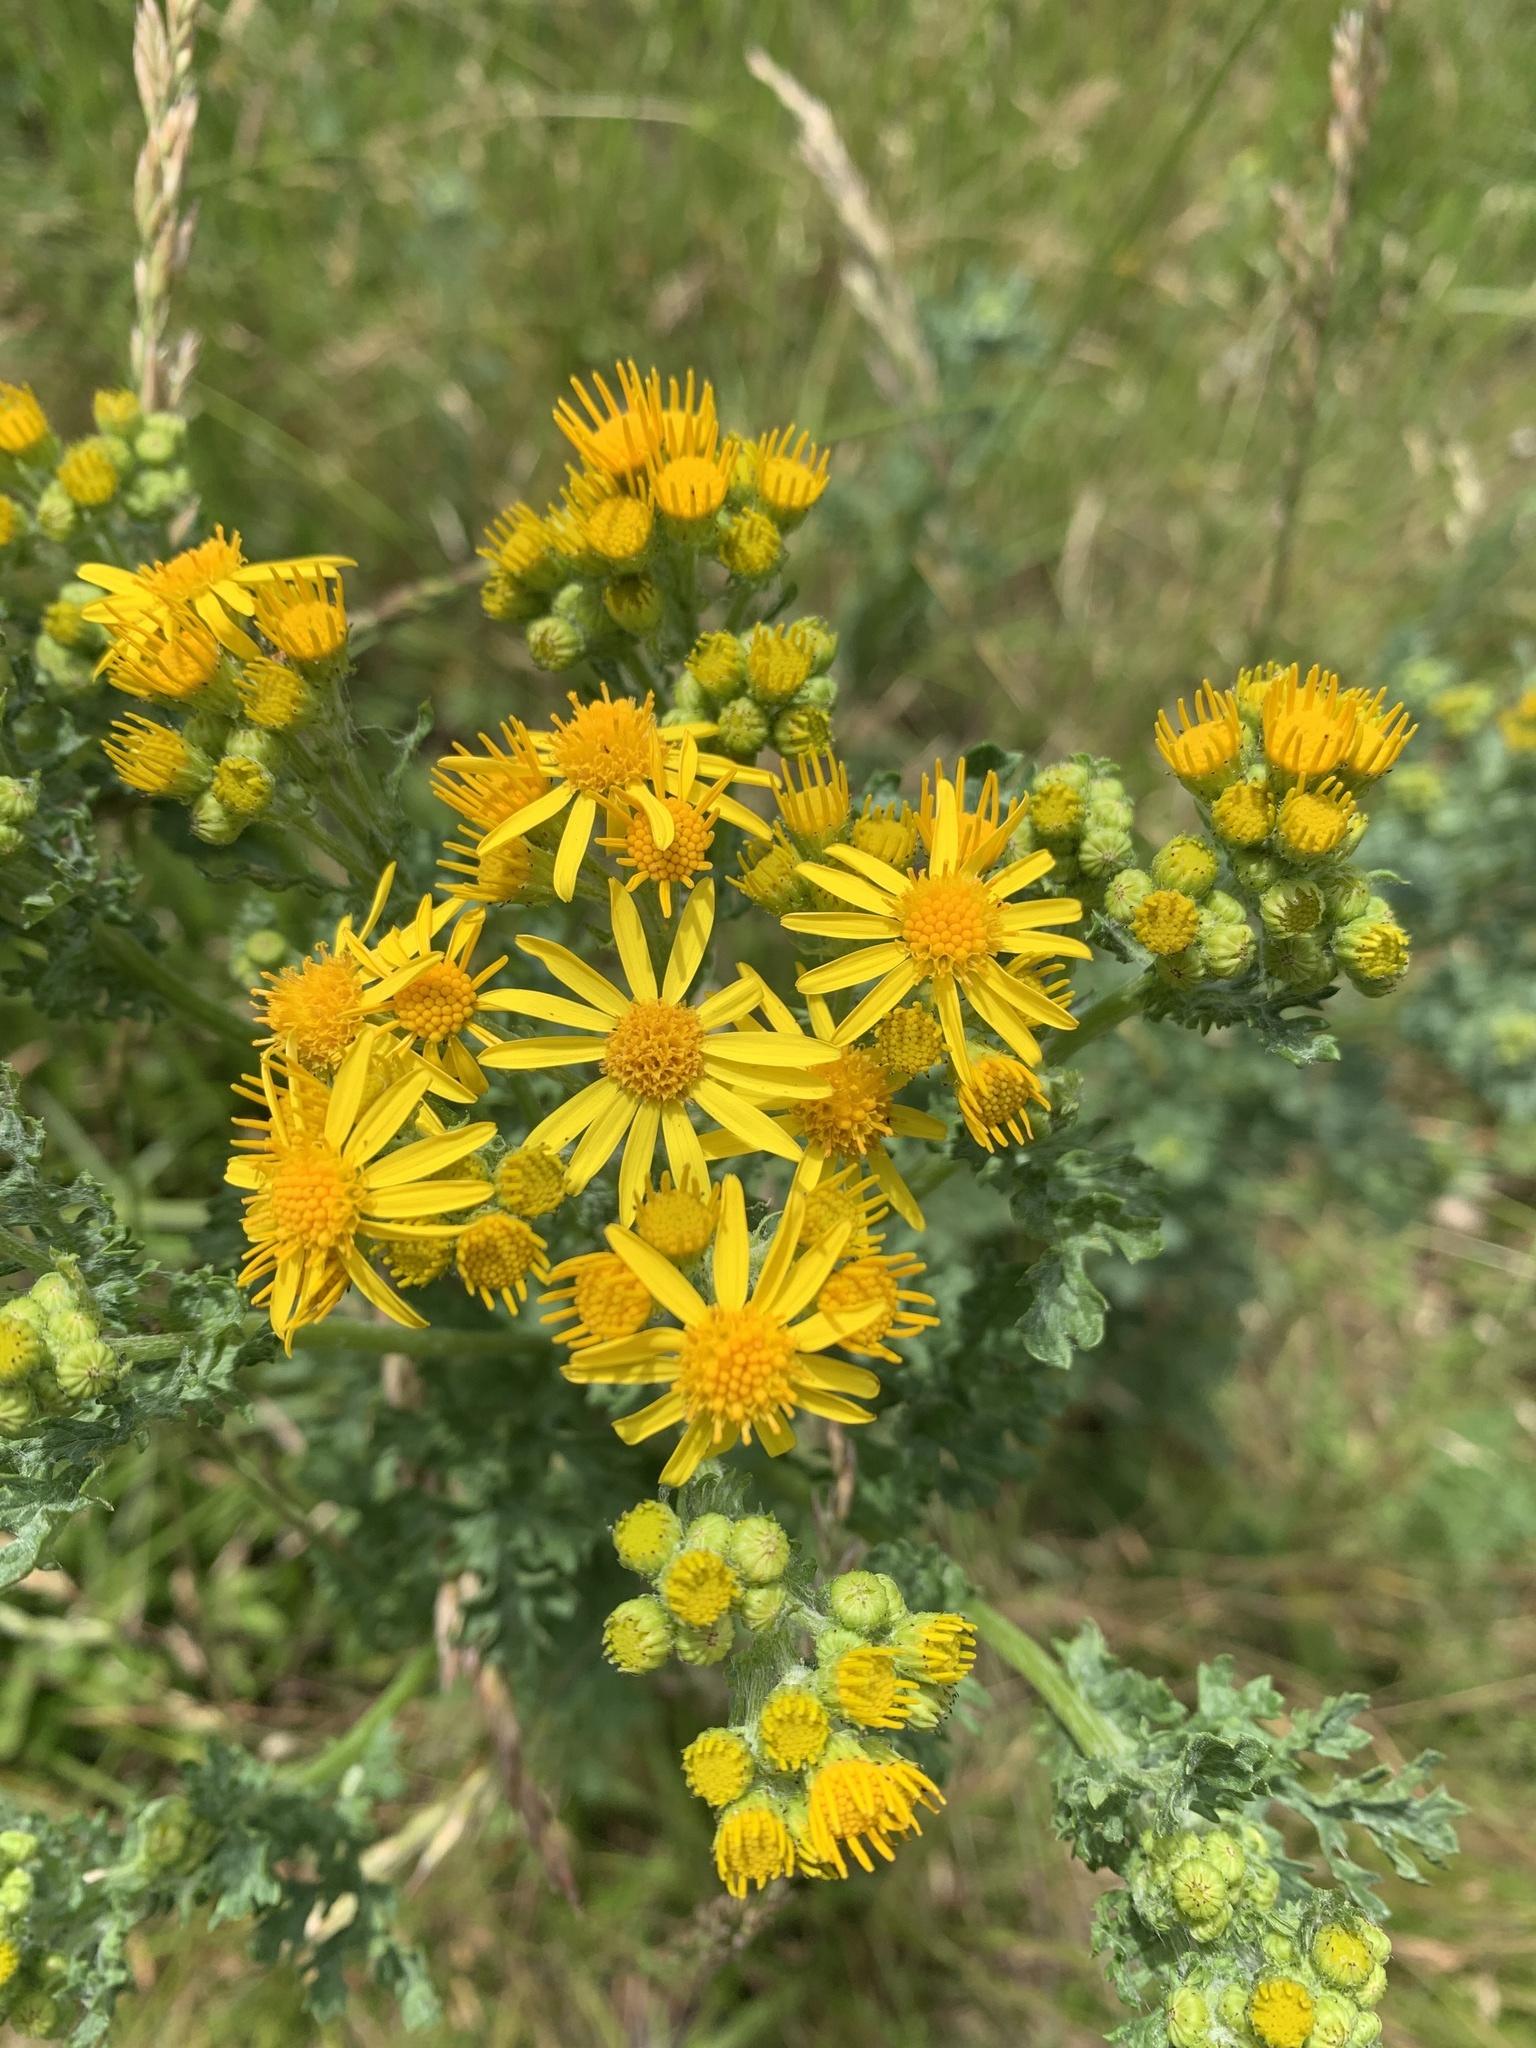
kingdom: Plantae
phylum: Tracheophyta
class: Magnoliopsida
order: Asterales
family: Asteraceae
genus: Jacobaea
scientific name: Jacobaea vulgaris
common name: Stinking willie
